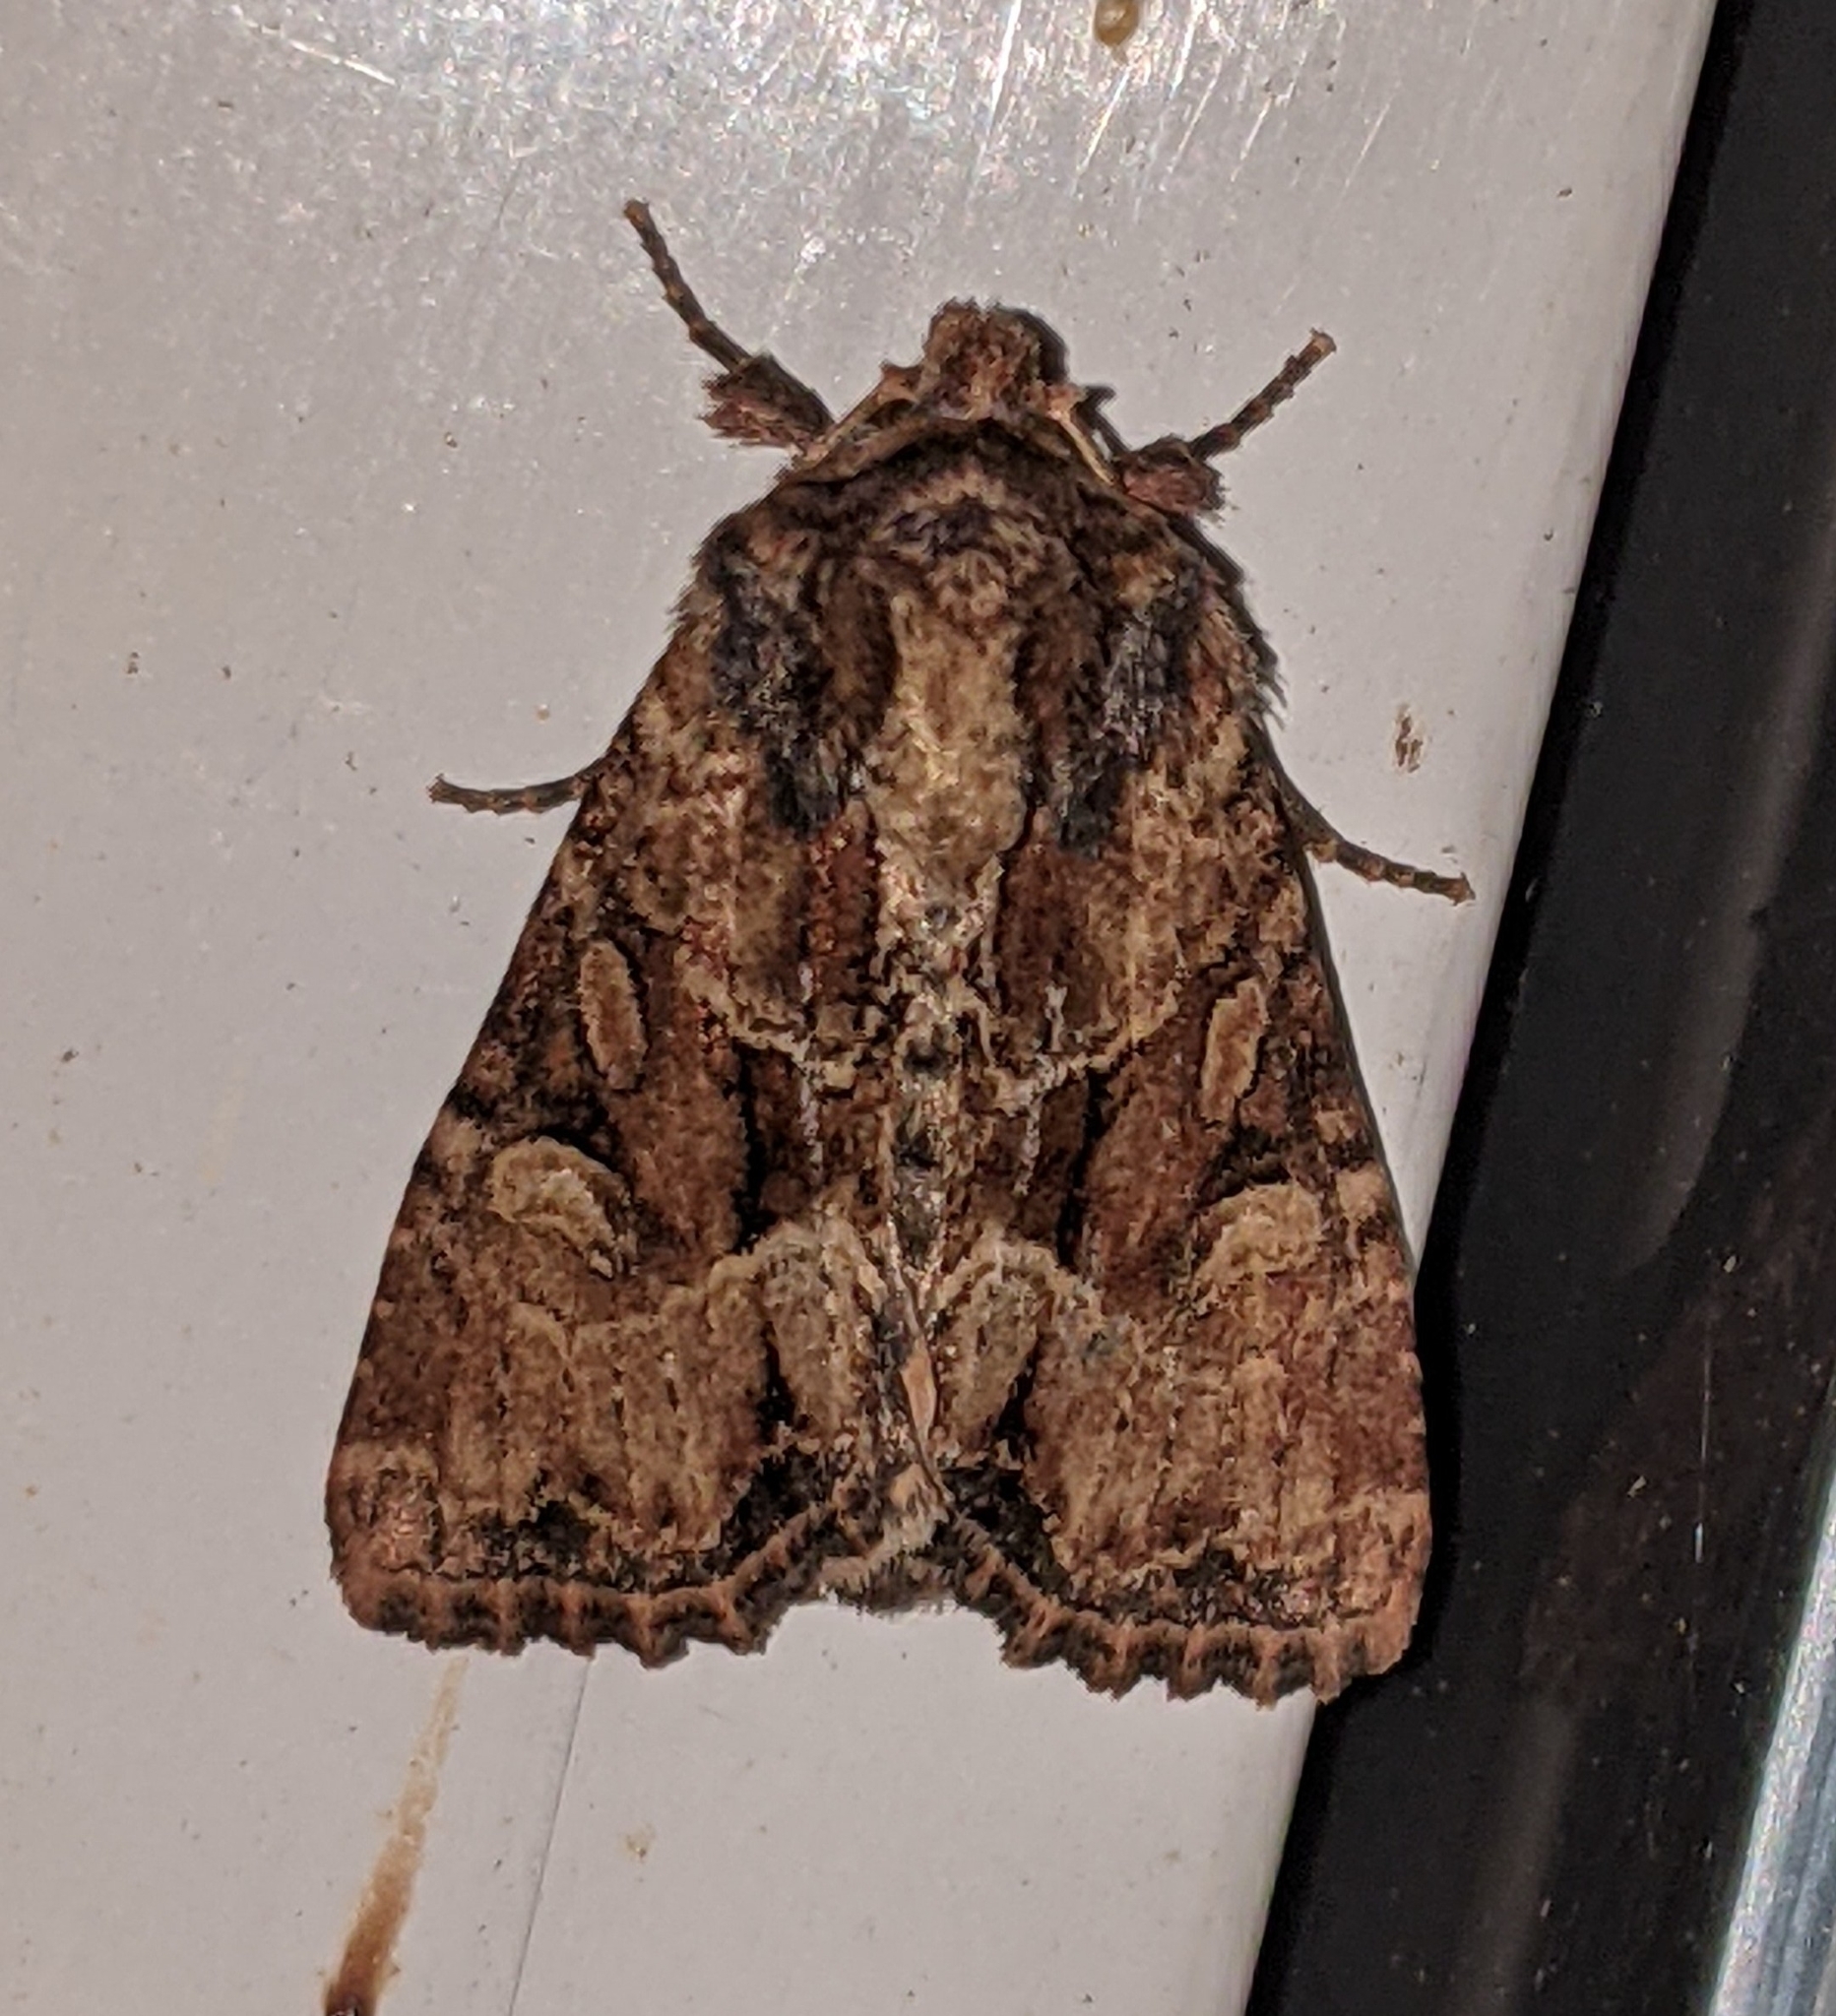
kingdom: Animalia
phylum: Arthropoda
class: Insecta
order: Lepidoptera
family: Noctuidae
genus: Xylomoia
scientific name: Xylomoia indirecta
